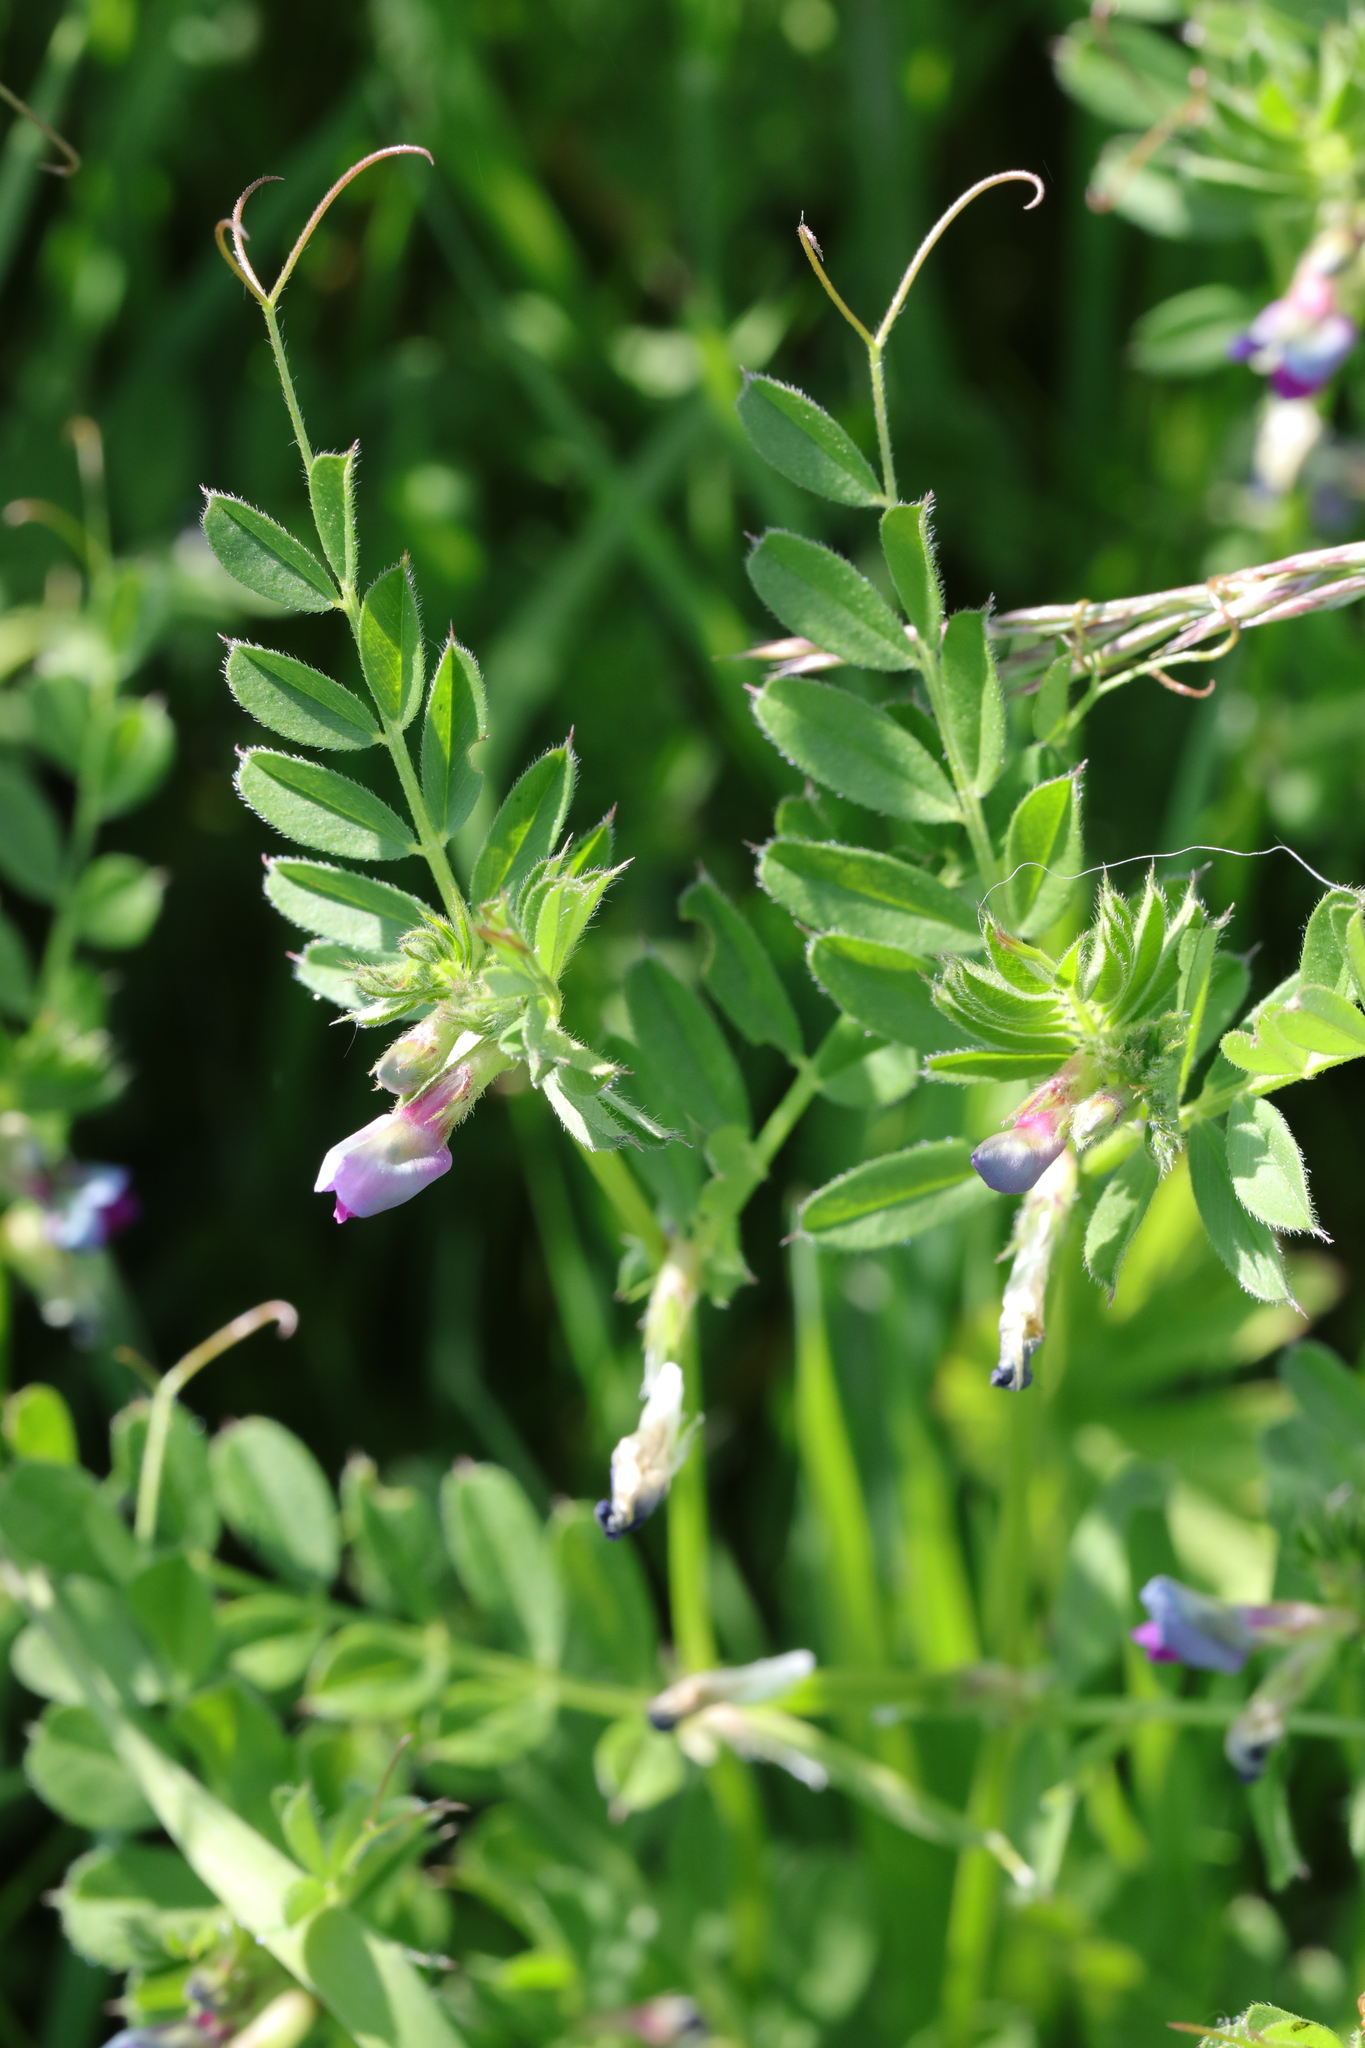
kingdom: Plantae
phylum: Tracheophyta
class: Magnoliopsida
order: Fabales
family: Fabaceae
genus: Vicia
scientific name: Vicia sativa
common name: Garden vetch
